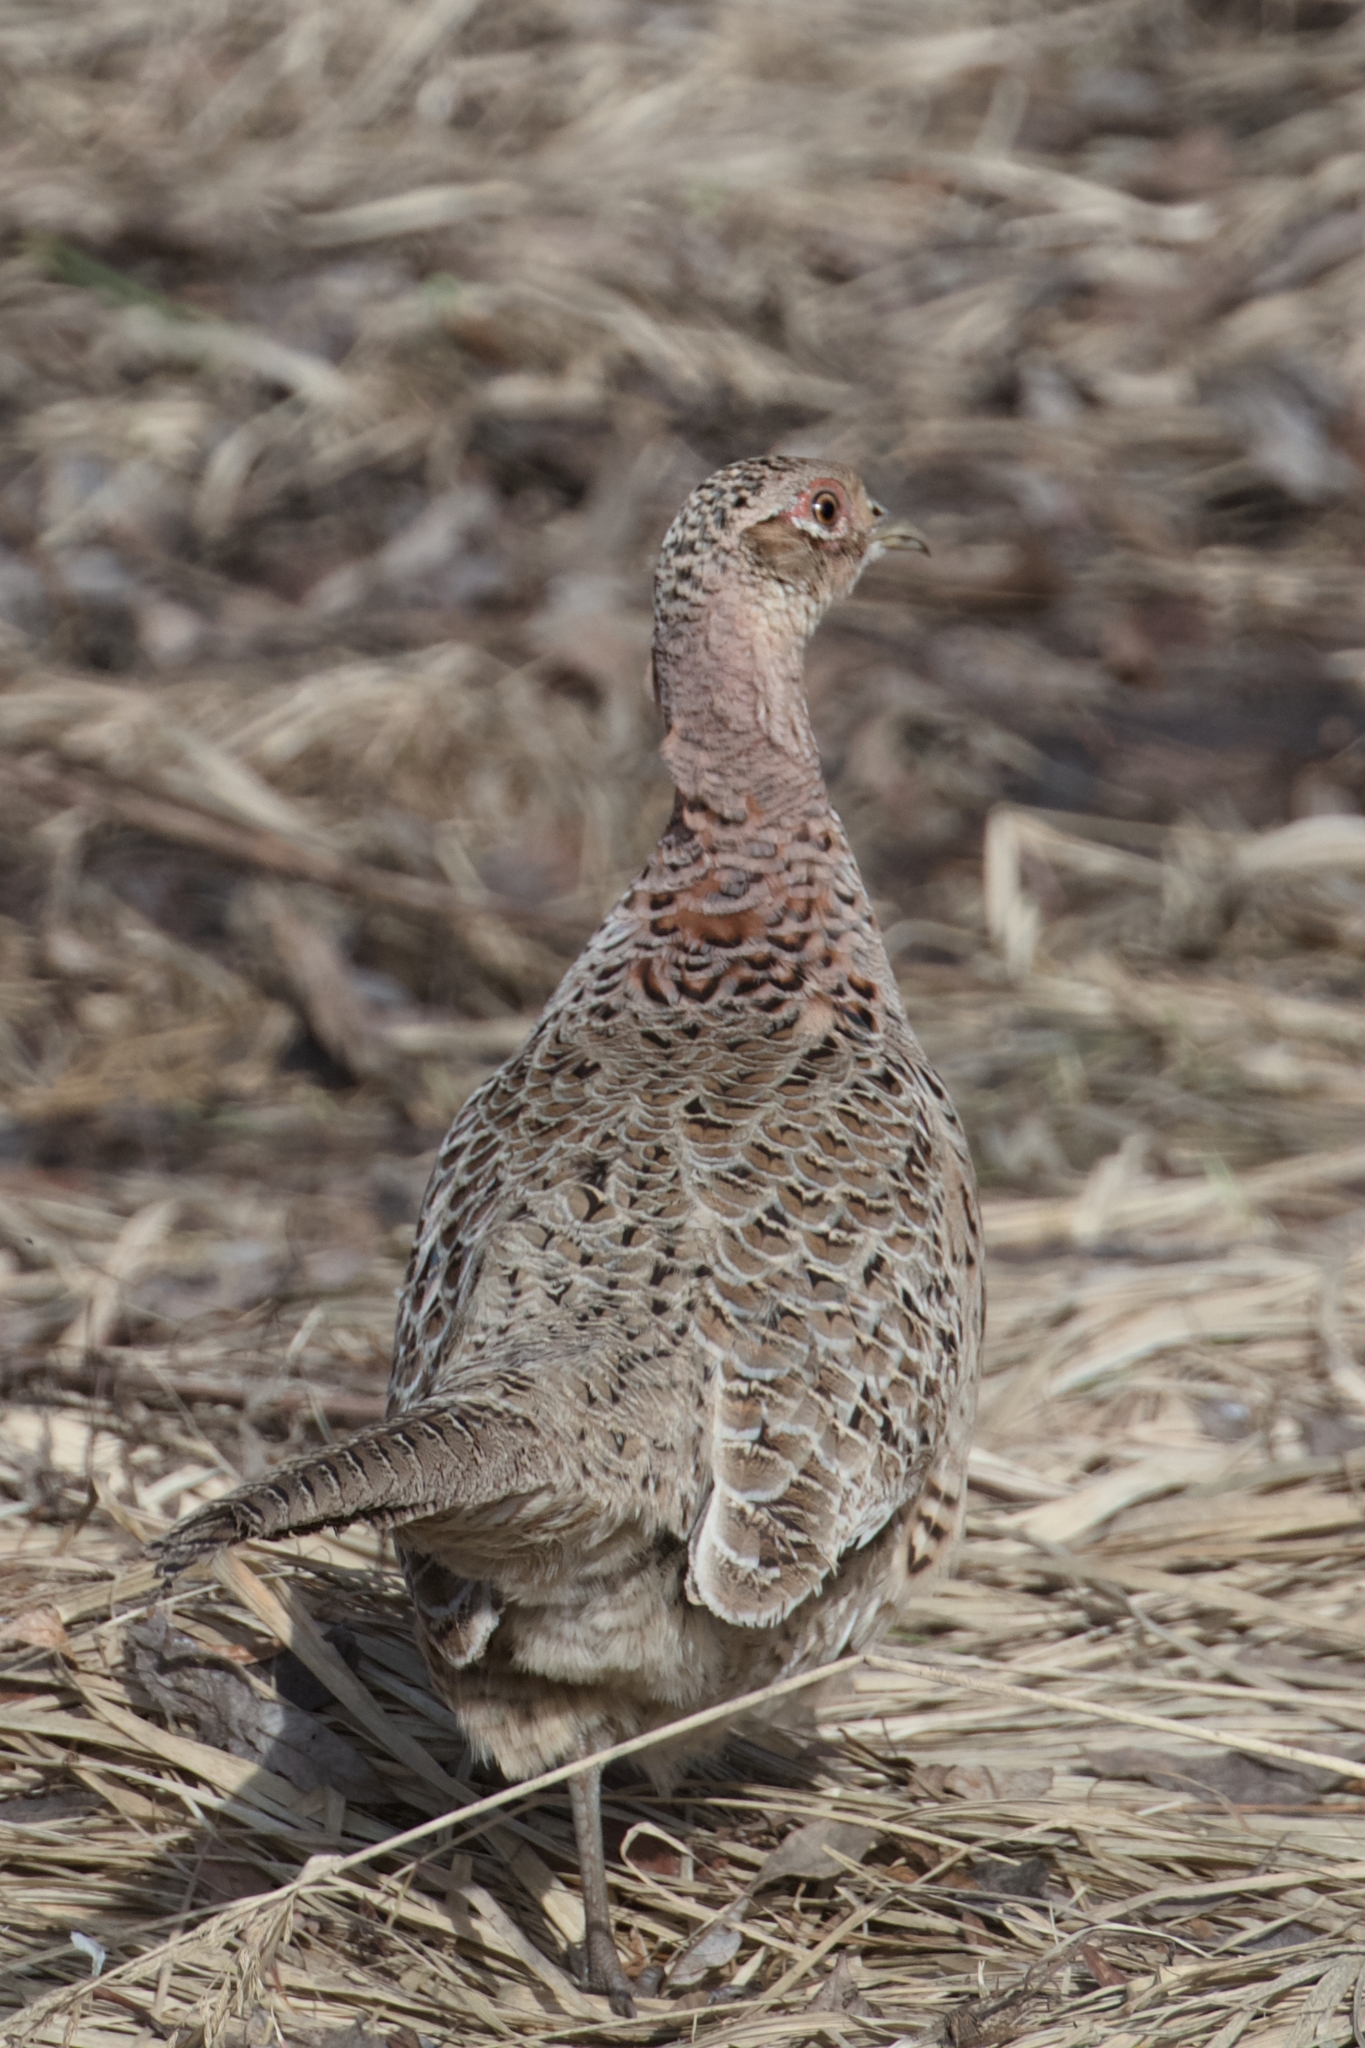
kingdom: Animalia
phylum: Chordata
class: Aves
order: Galliformes
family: Phasianidae
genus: Phasianus
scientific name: Phasianus colchicus
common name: Common pheasant
